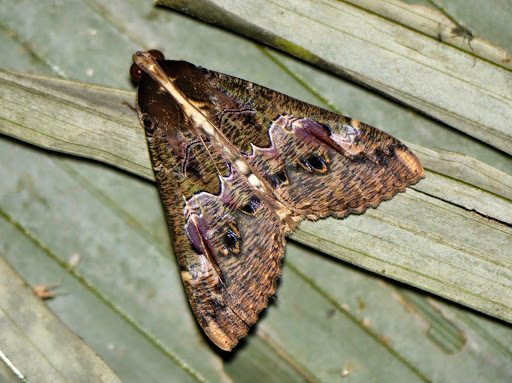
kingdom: Animalia
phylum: Arthropoda
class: Insecta
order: Lepidoptera
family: Erebidae
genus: Sphingomorpha
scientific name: Sphingomorpha chlorea
